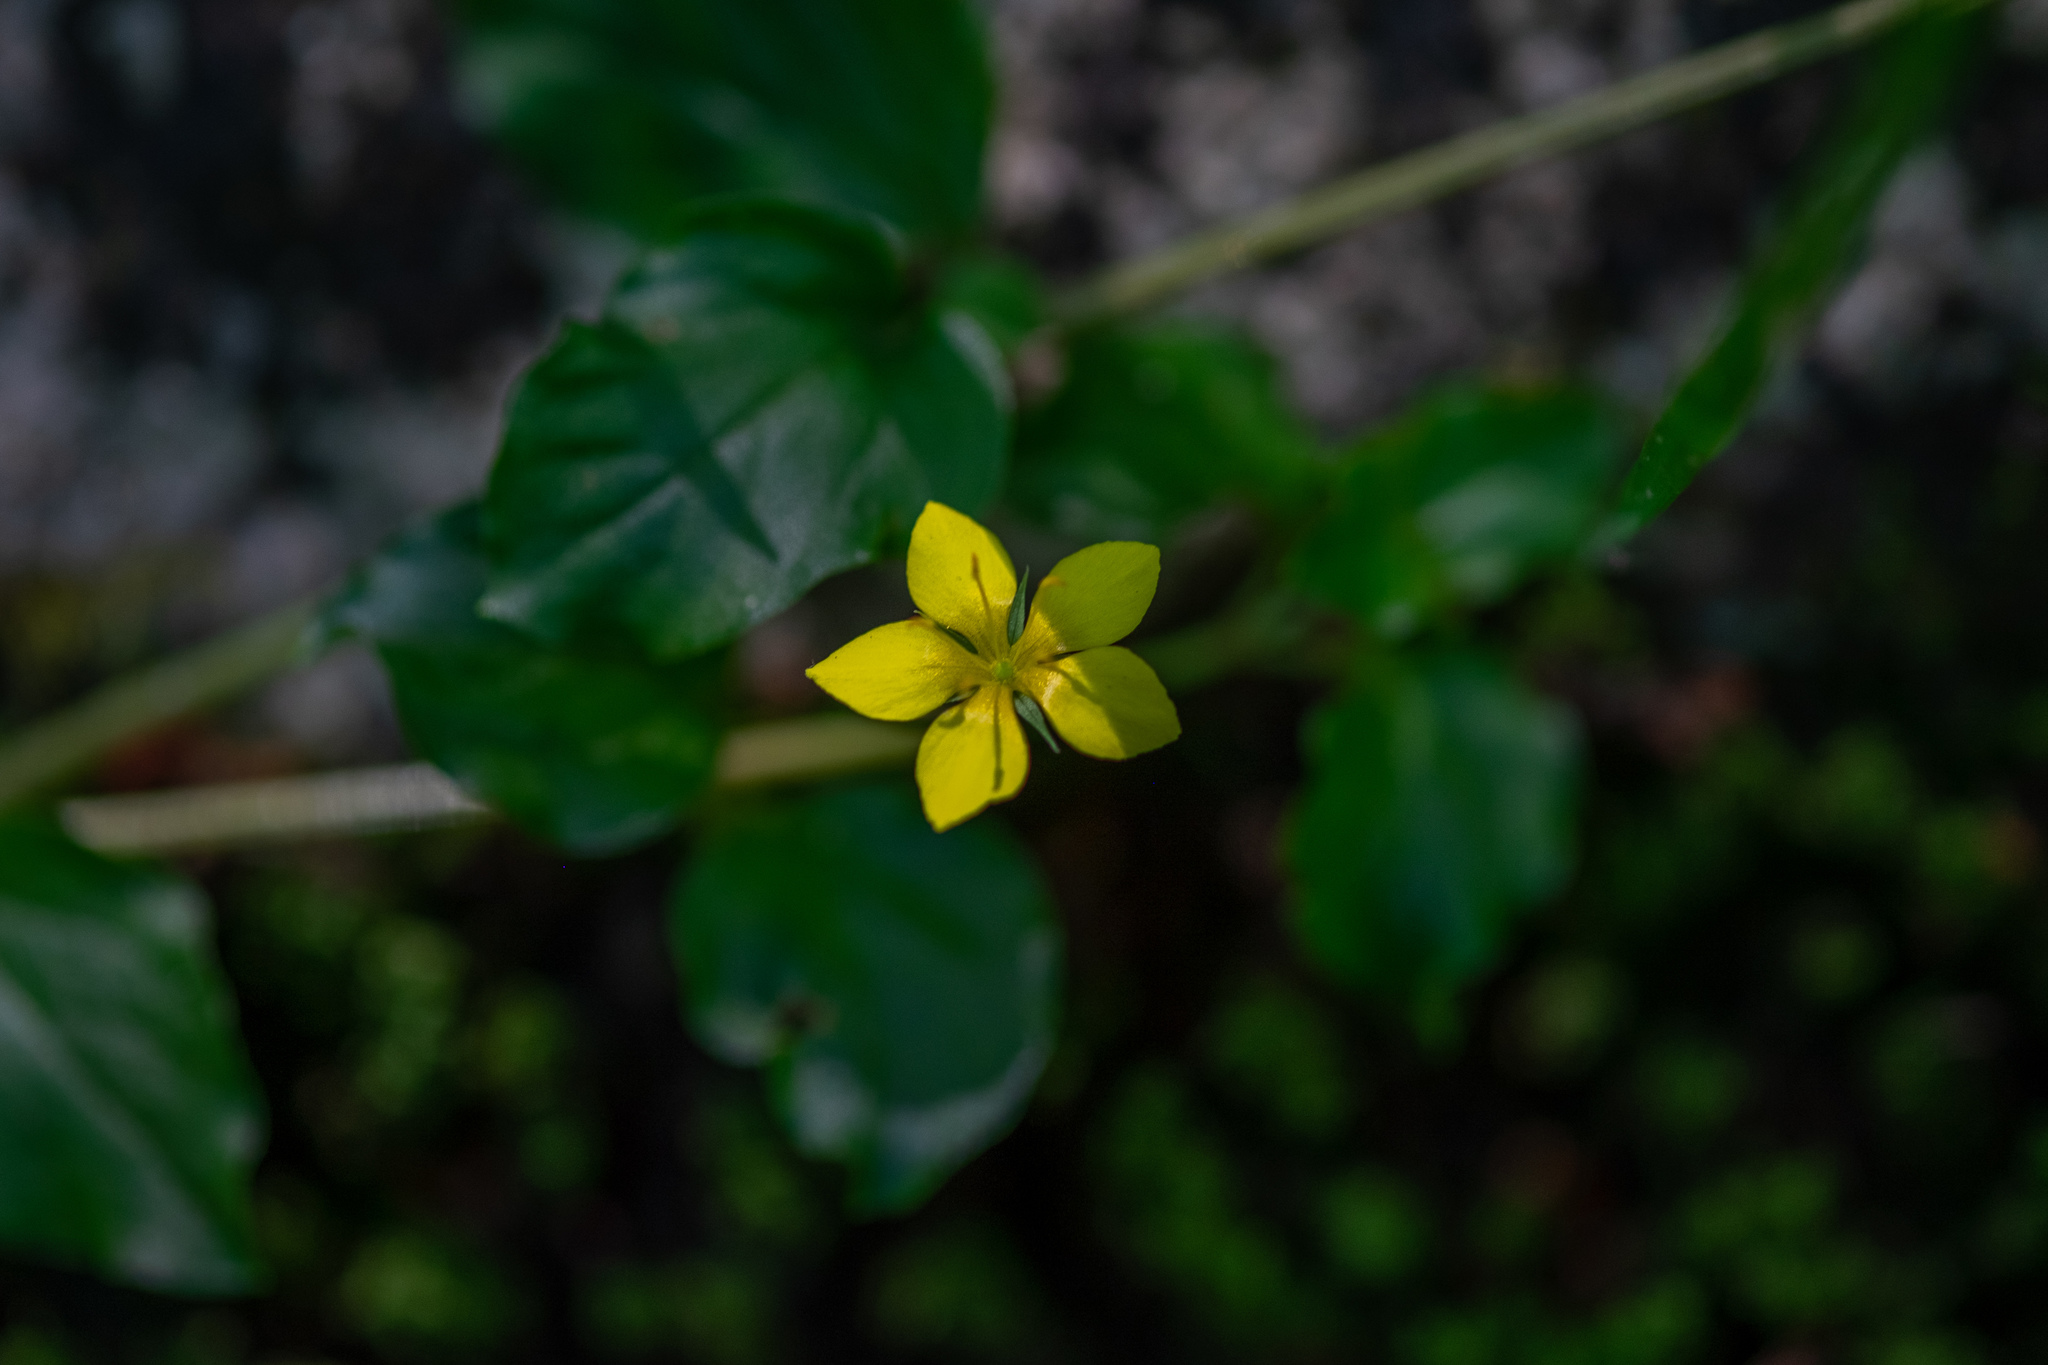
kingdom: Plantae
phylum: Tracheophyta
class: Magnoliopsida
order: Ericales
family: Primulaceae
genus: Lysimachia
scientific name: Lysimachia nemorum
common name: Yellow pimpernel
